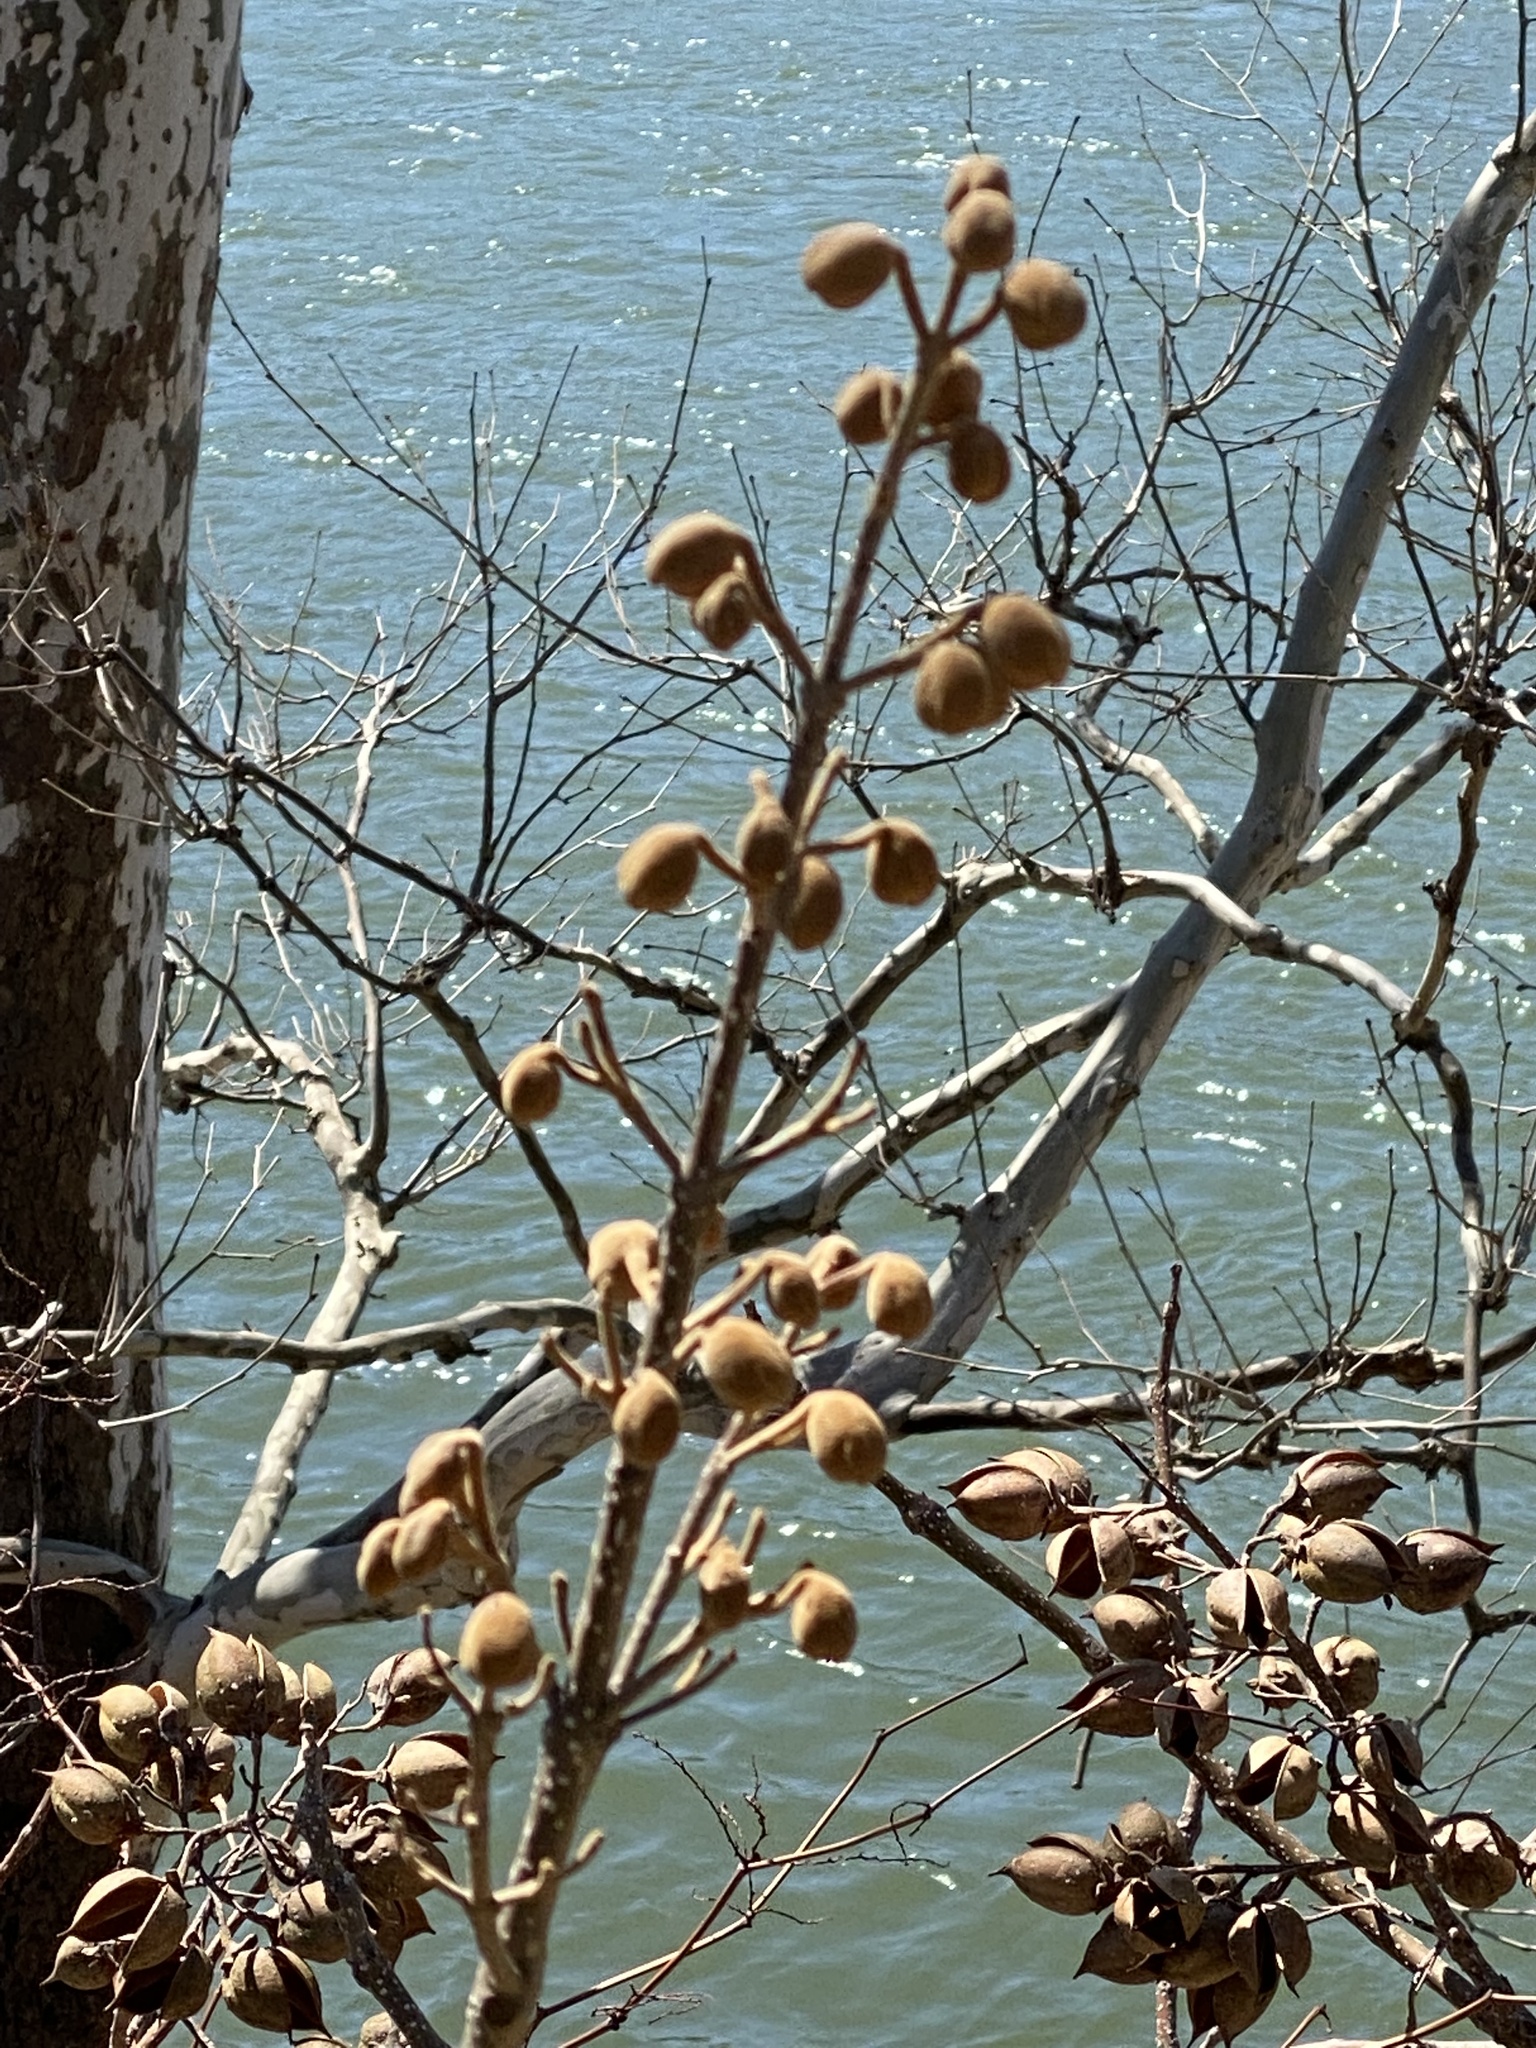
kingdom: Plantae
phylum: Tracheophyta
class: Magnoliopsida
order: Lamiales
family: Paulowniaceae
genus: Paulownia
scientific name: Paulownia tomentosa
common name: Foxglove-tree
